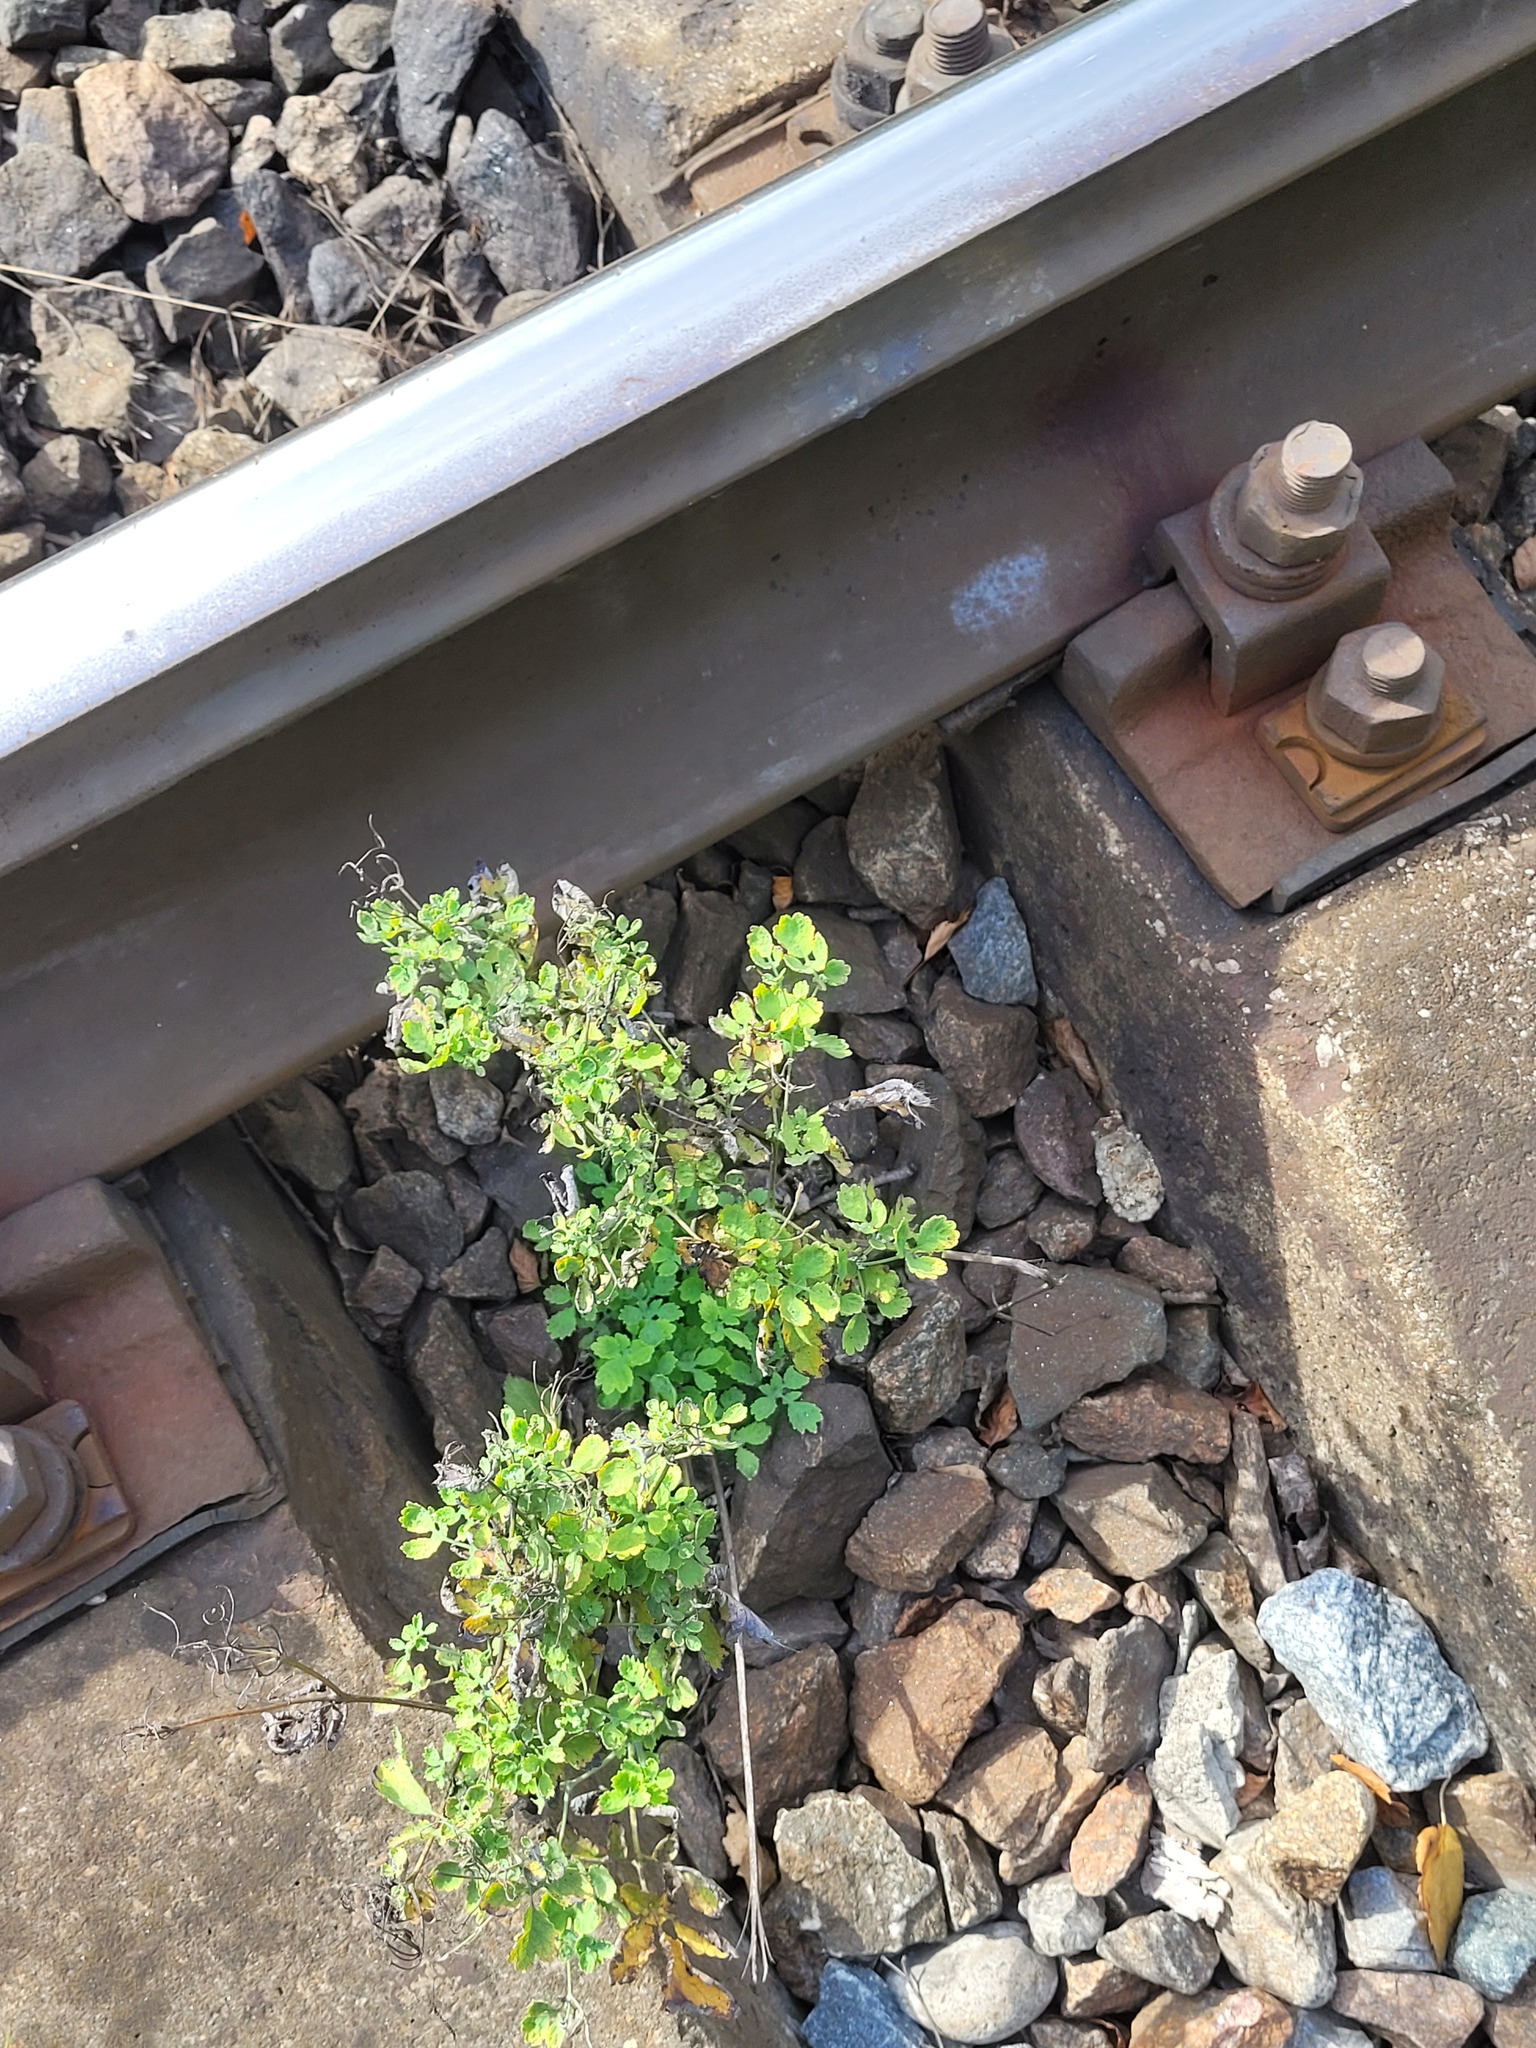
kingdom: Plantae
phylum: Tracheophyta
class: Magnoliopsida
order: Ranunculales
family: Papaveraceae
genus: Chelidonium
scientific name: Chelidonium majus
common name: Greater celandine
